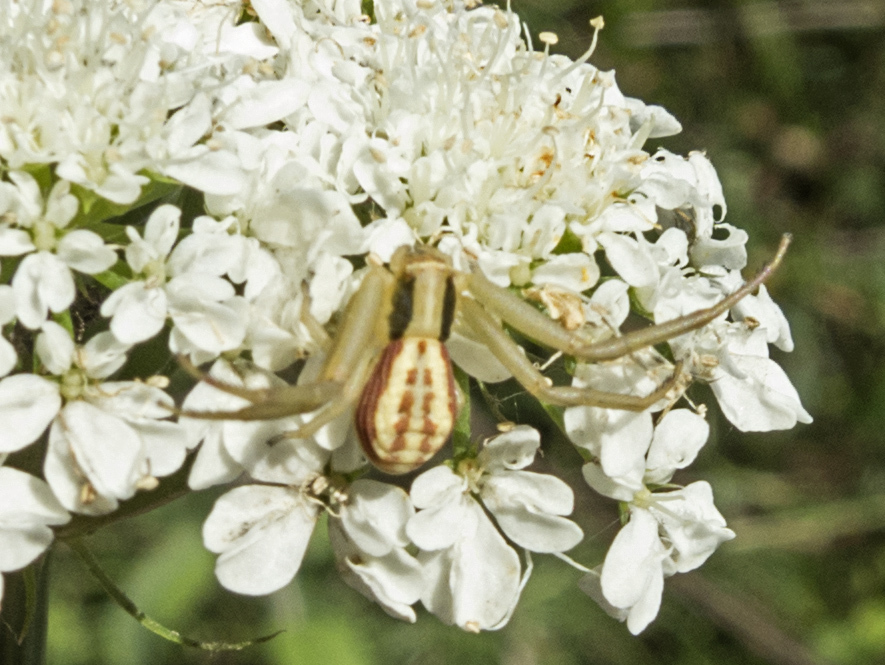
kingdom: Animalia
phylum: Arthropoda
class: Arachnida
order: Araneae
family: Thomisidae
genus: Runcinia
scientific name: Runcinia grammica
